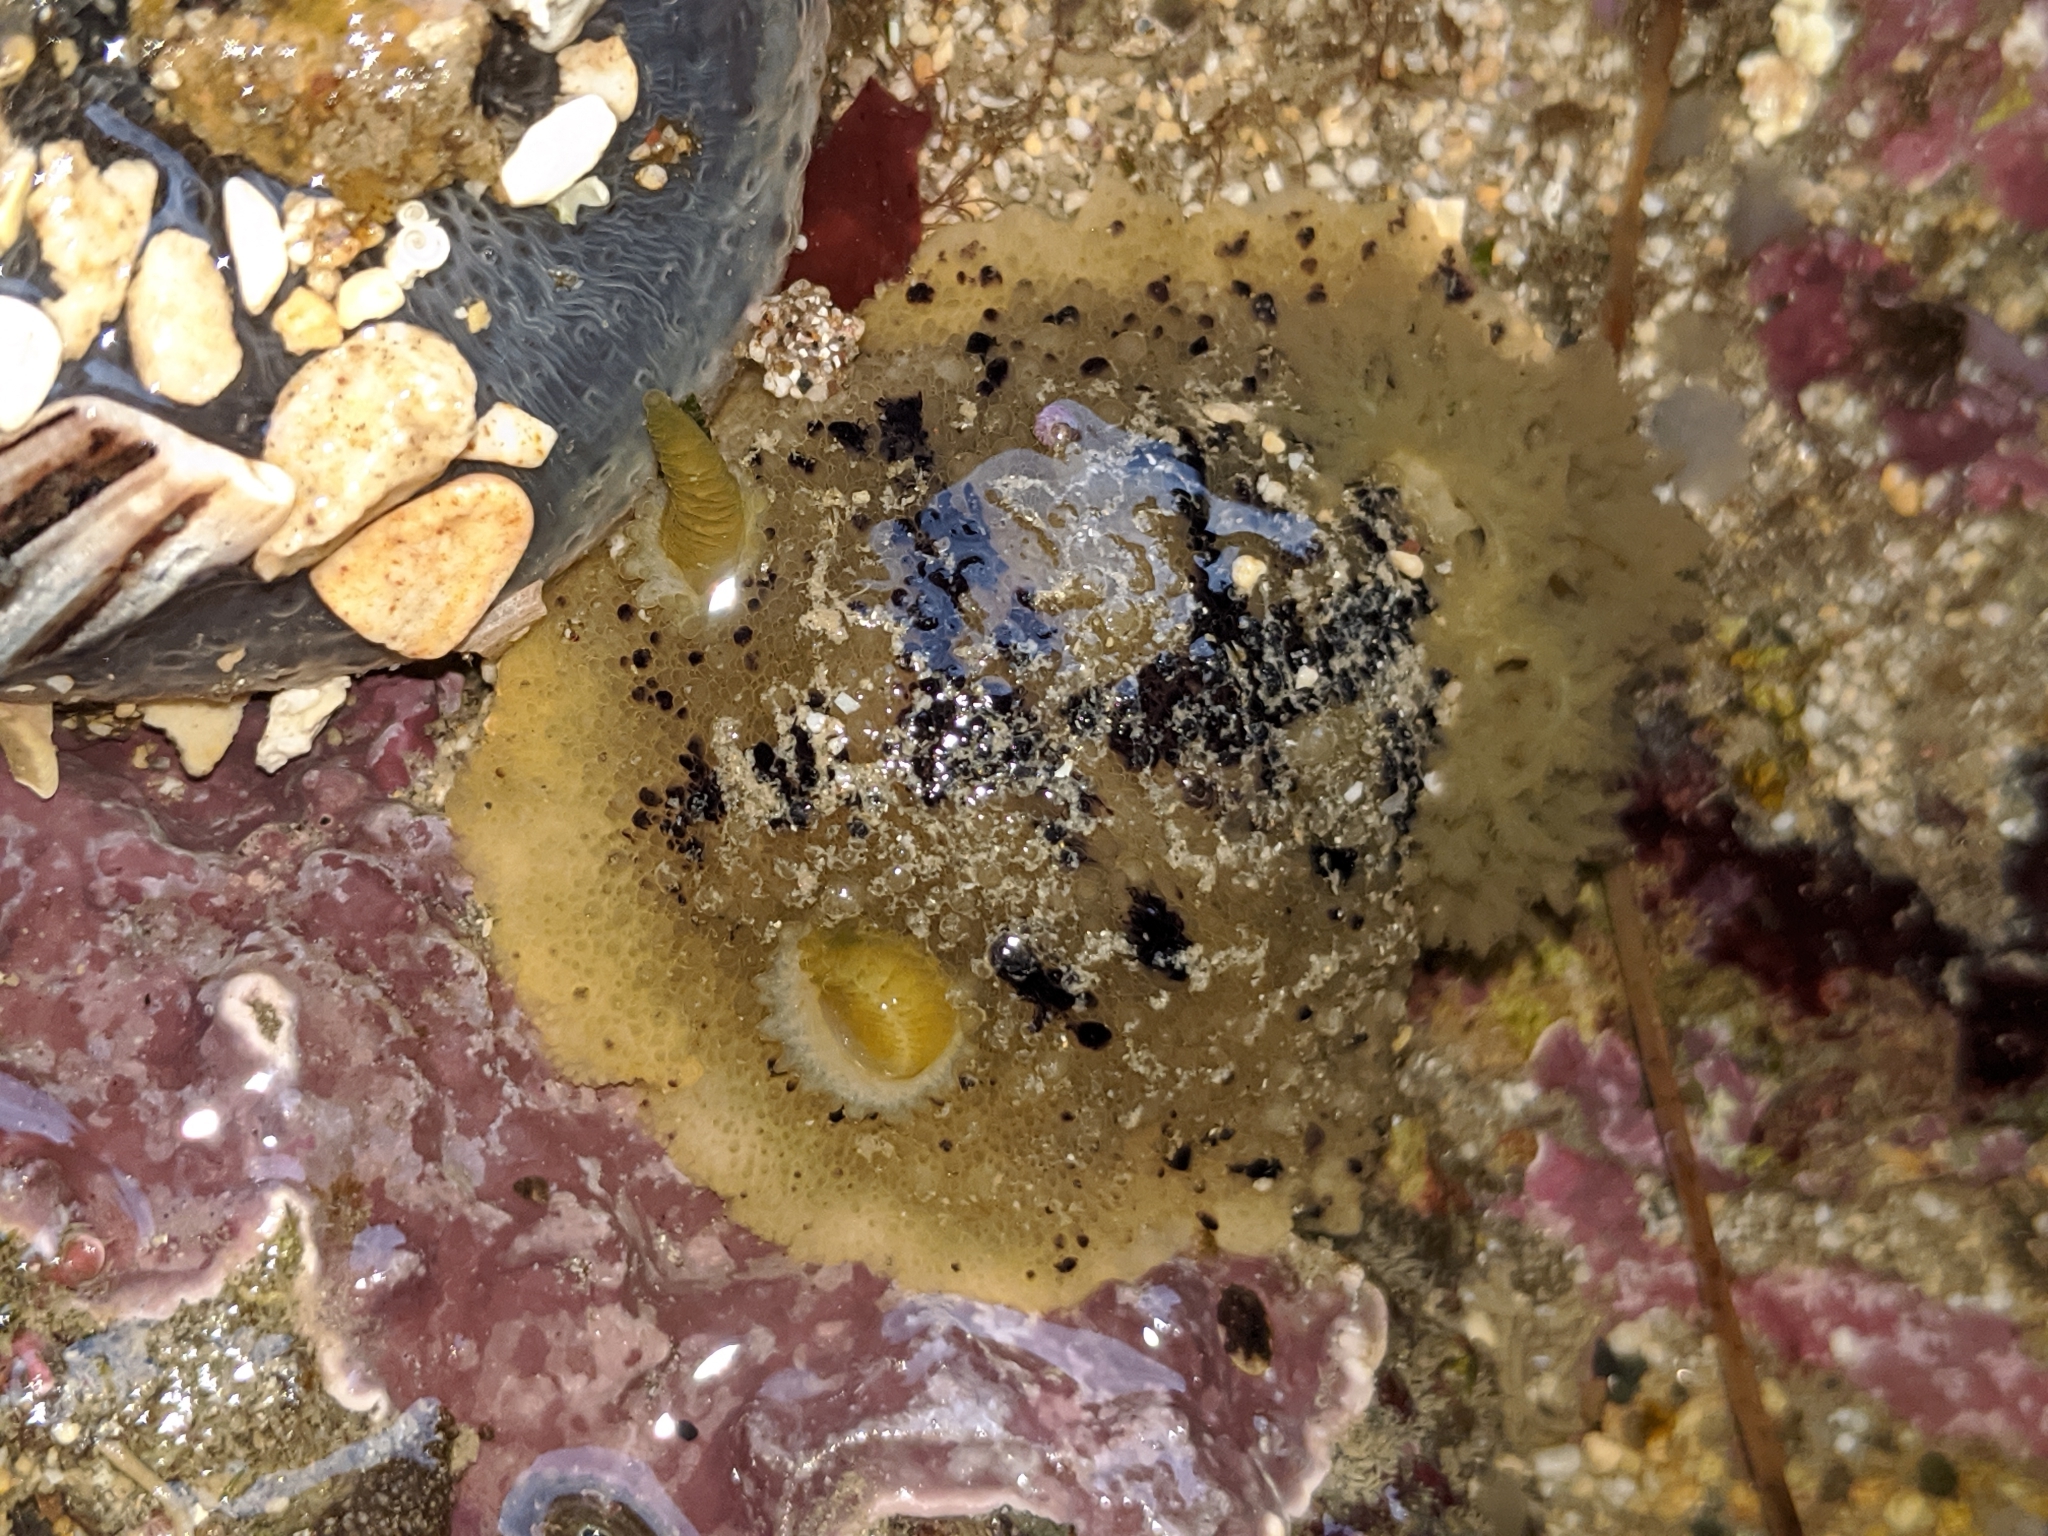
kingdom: Animalia
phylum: Mollusca
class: Gastropoda
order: Nudibranchia
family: Dorididae
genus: Doris
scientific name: Doris montereyensis
